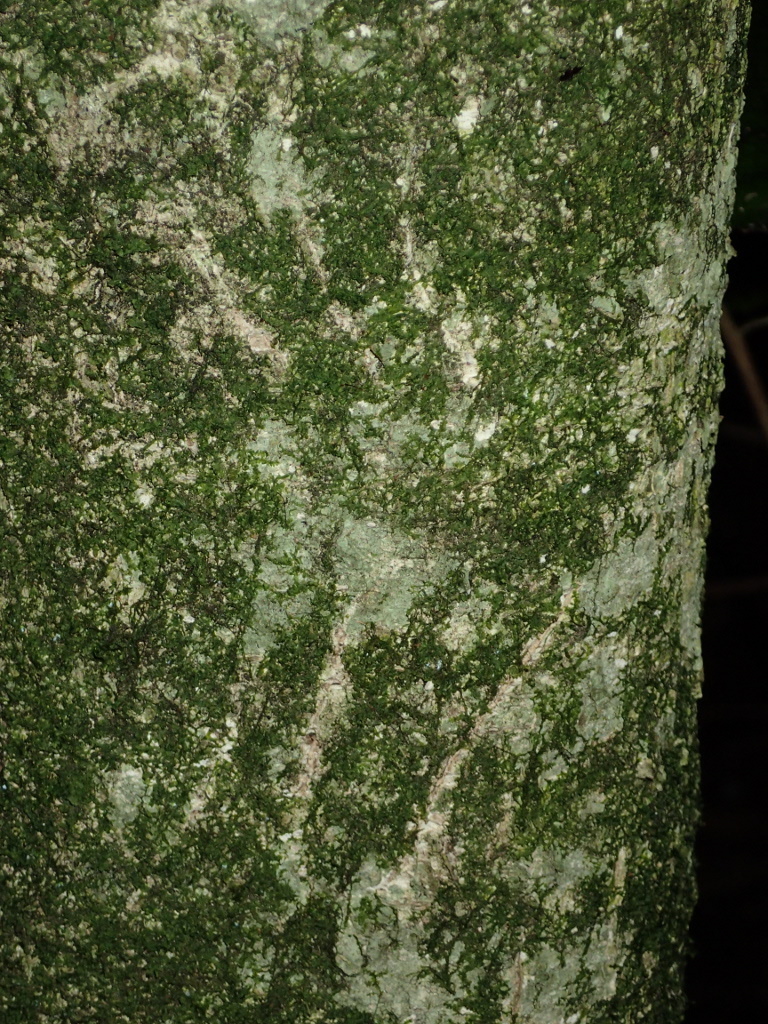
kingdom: Animalia
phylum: Chordata
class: Mammalia
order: Diprotodontia
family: Phalangeridae
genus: Trichosurus
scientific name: Trichosurus vulpecula
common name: Common brushtail
